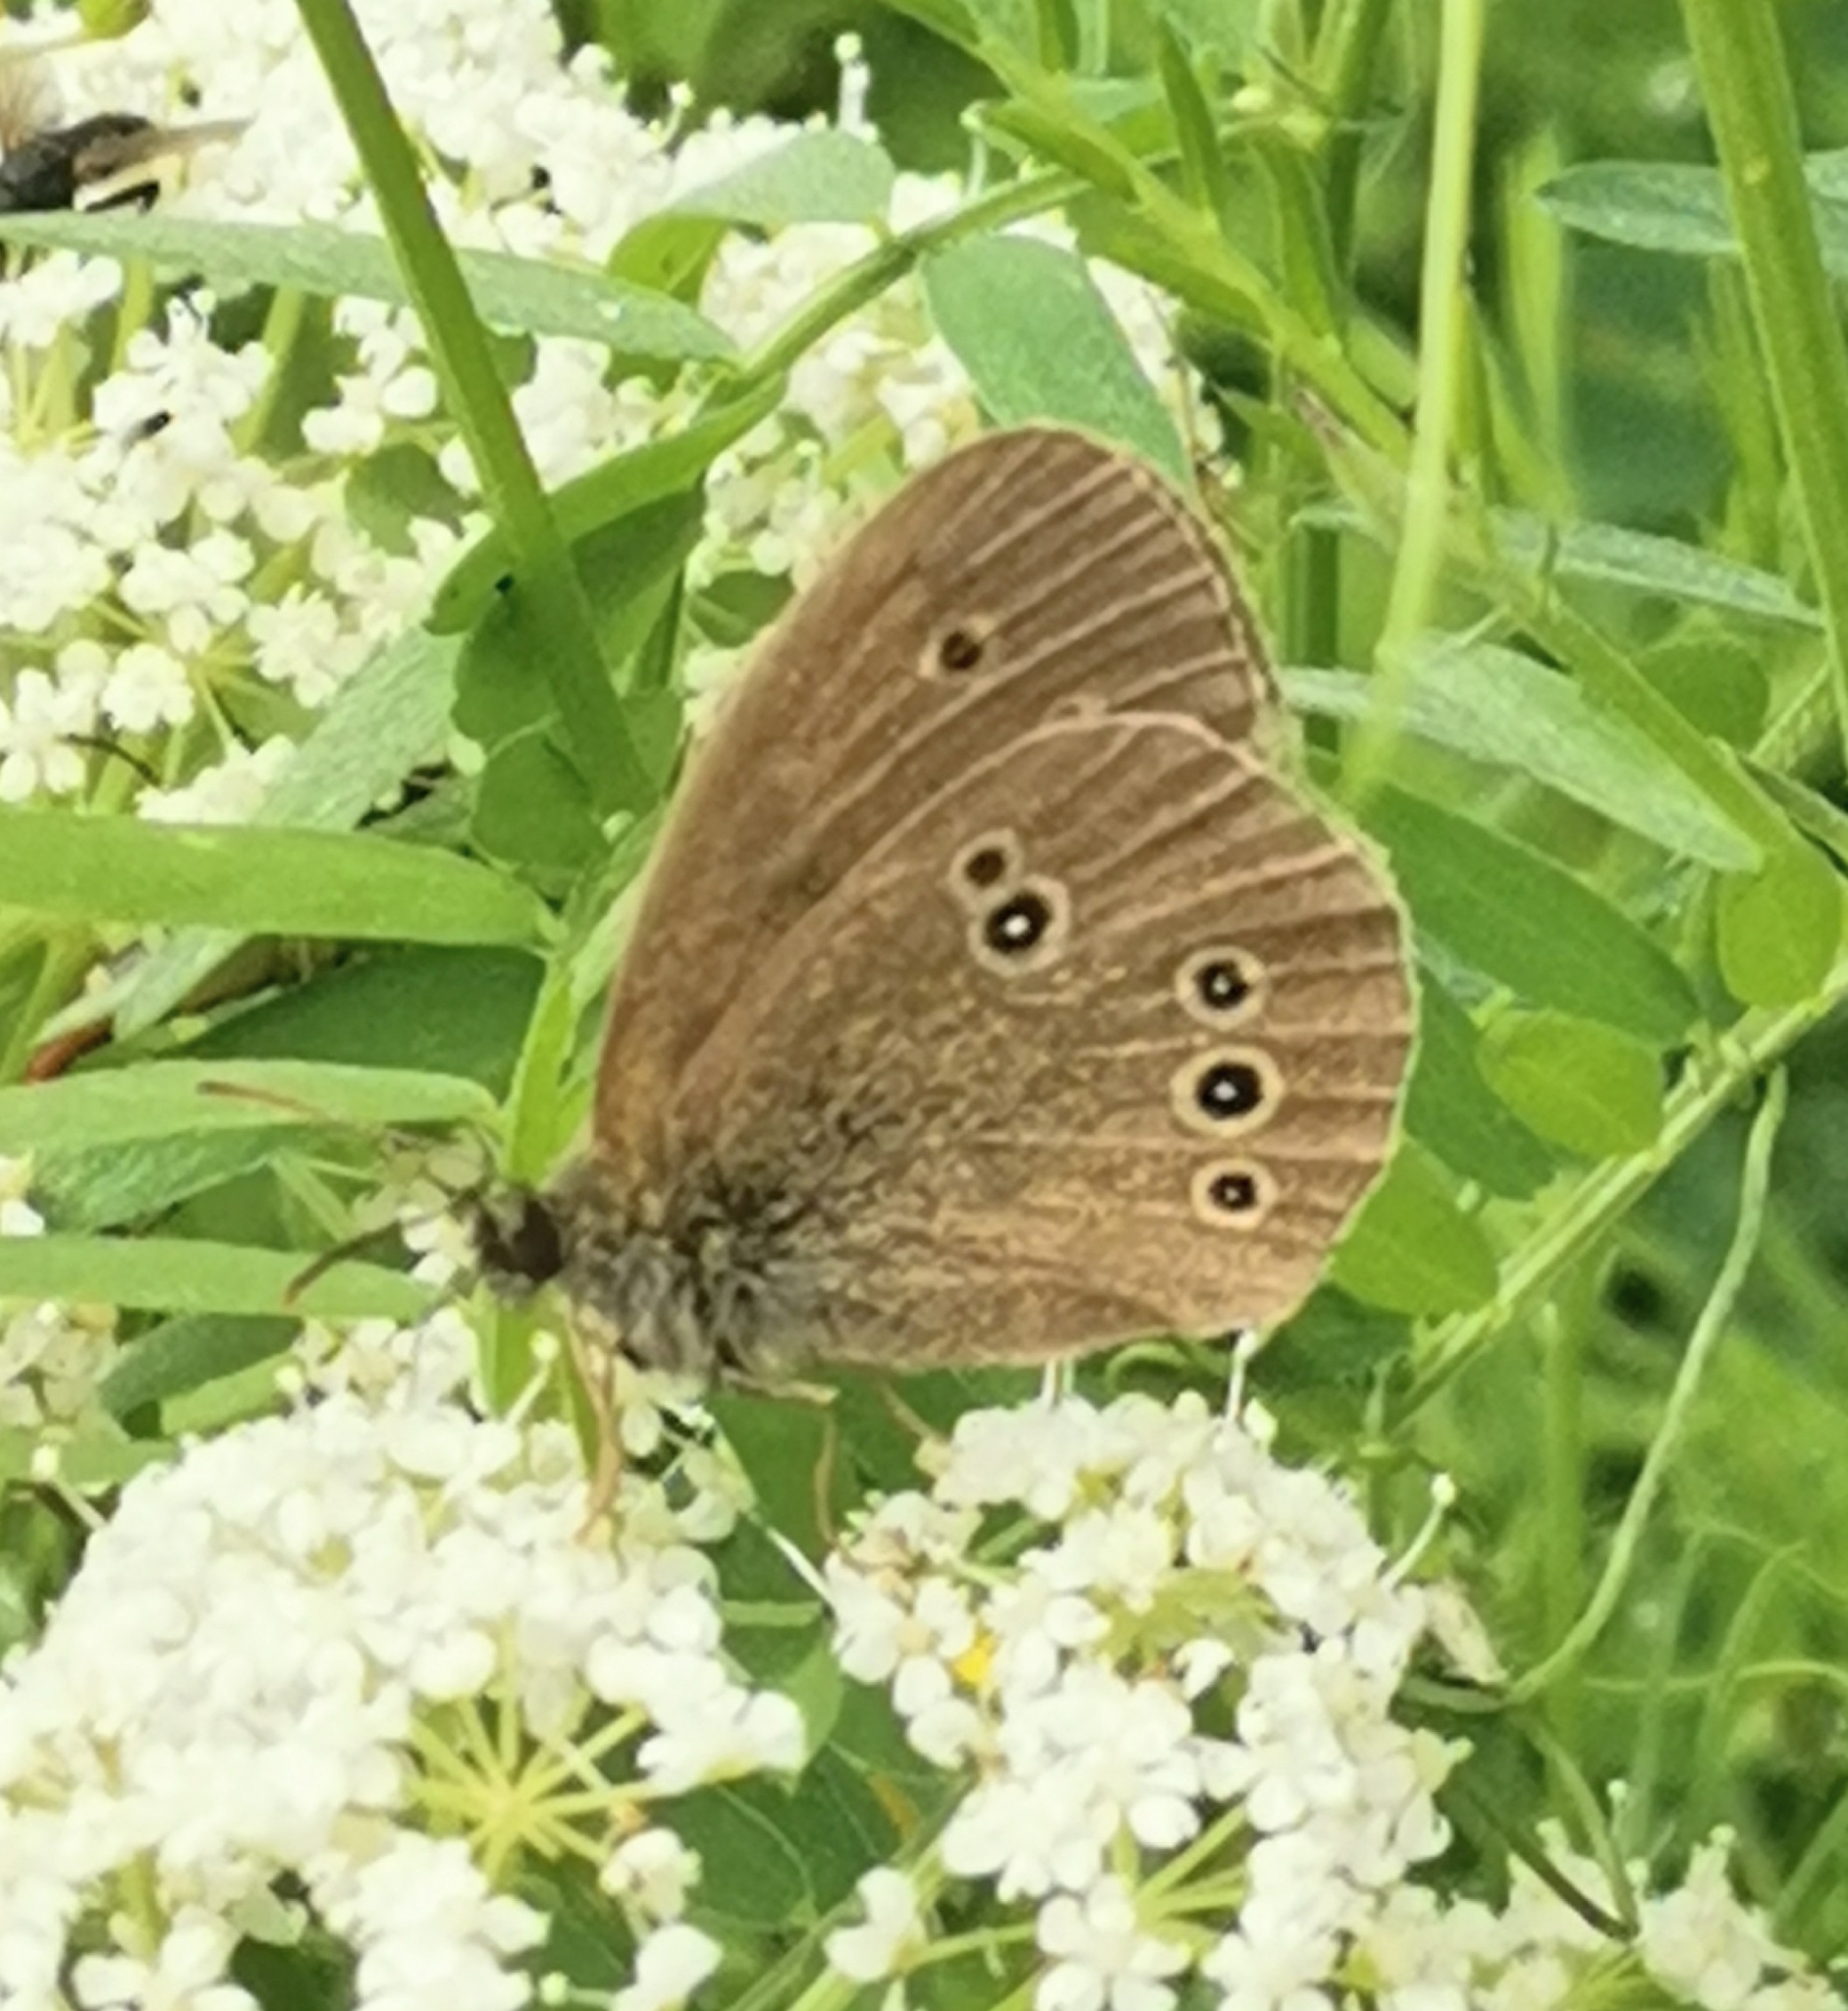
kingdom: Animalia
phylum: Arthropoda
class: Insecta
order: Lepidoptera
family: Nymphalidae
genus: Aphantopus
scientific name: Aphantopus hyperantus
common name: Ringlet
